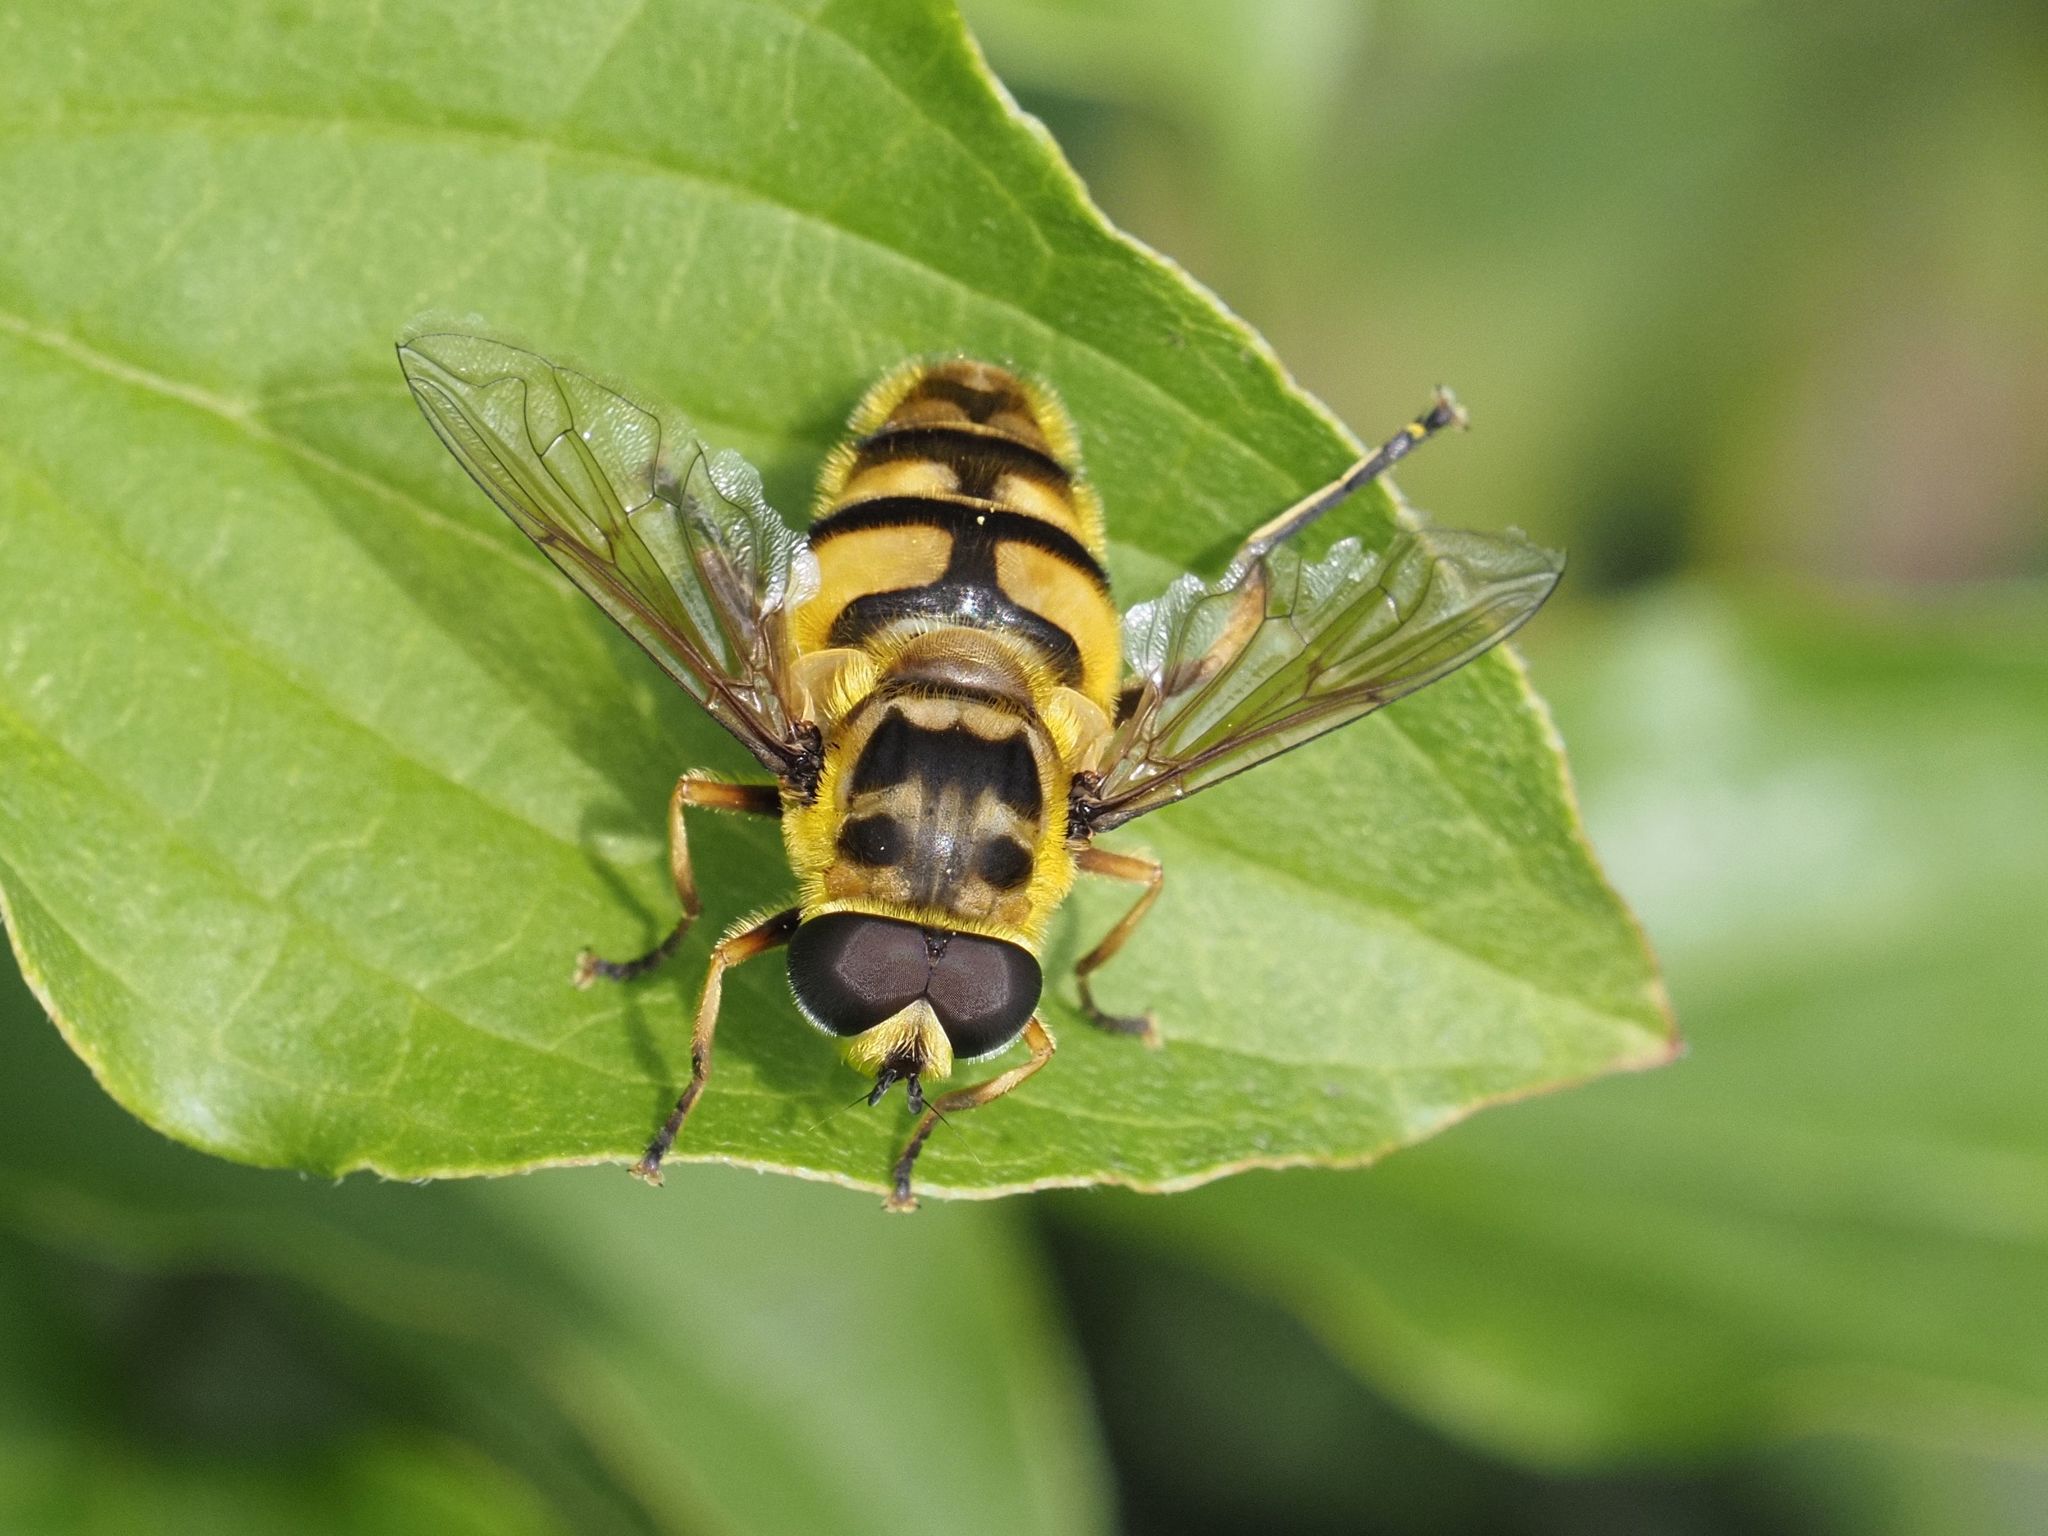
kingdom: Animalia
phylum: Arthropoda
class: Insecta
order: Diptera
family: Syrphidae
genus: Myathropa
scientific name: Myathropa florea
